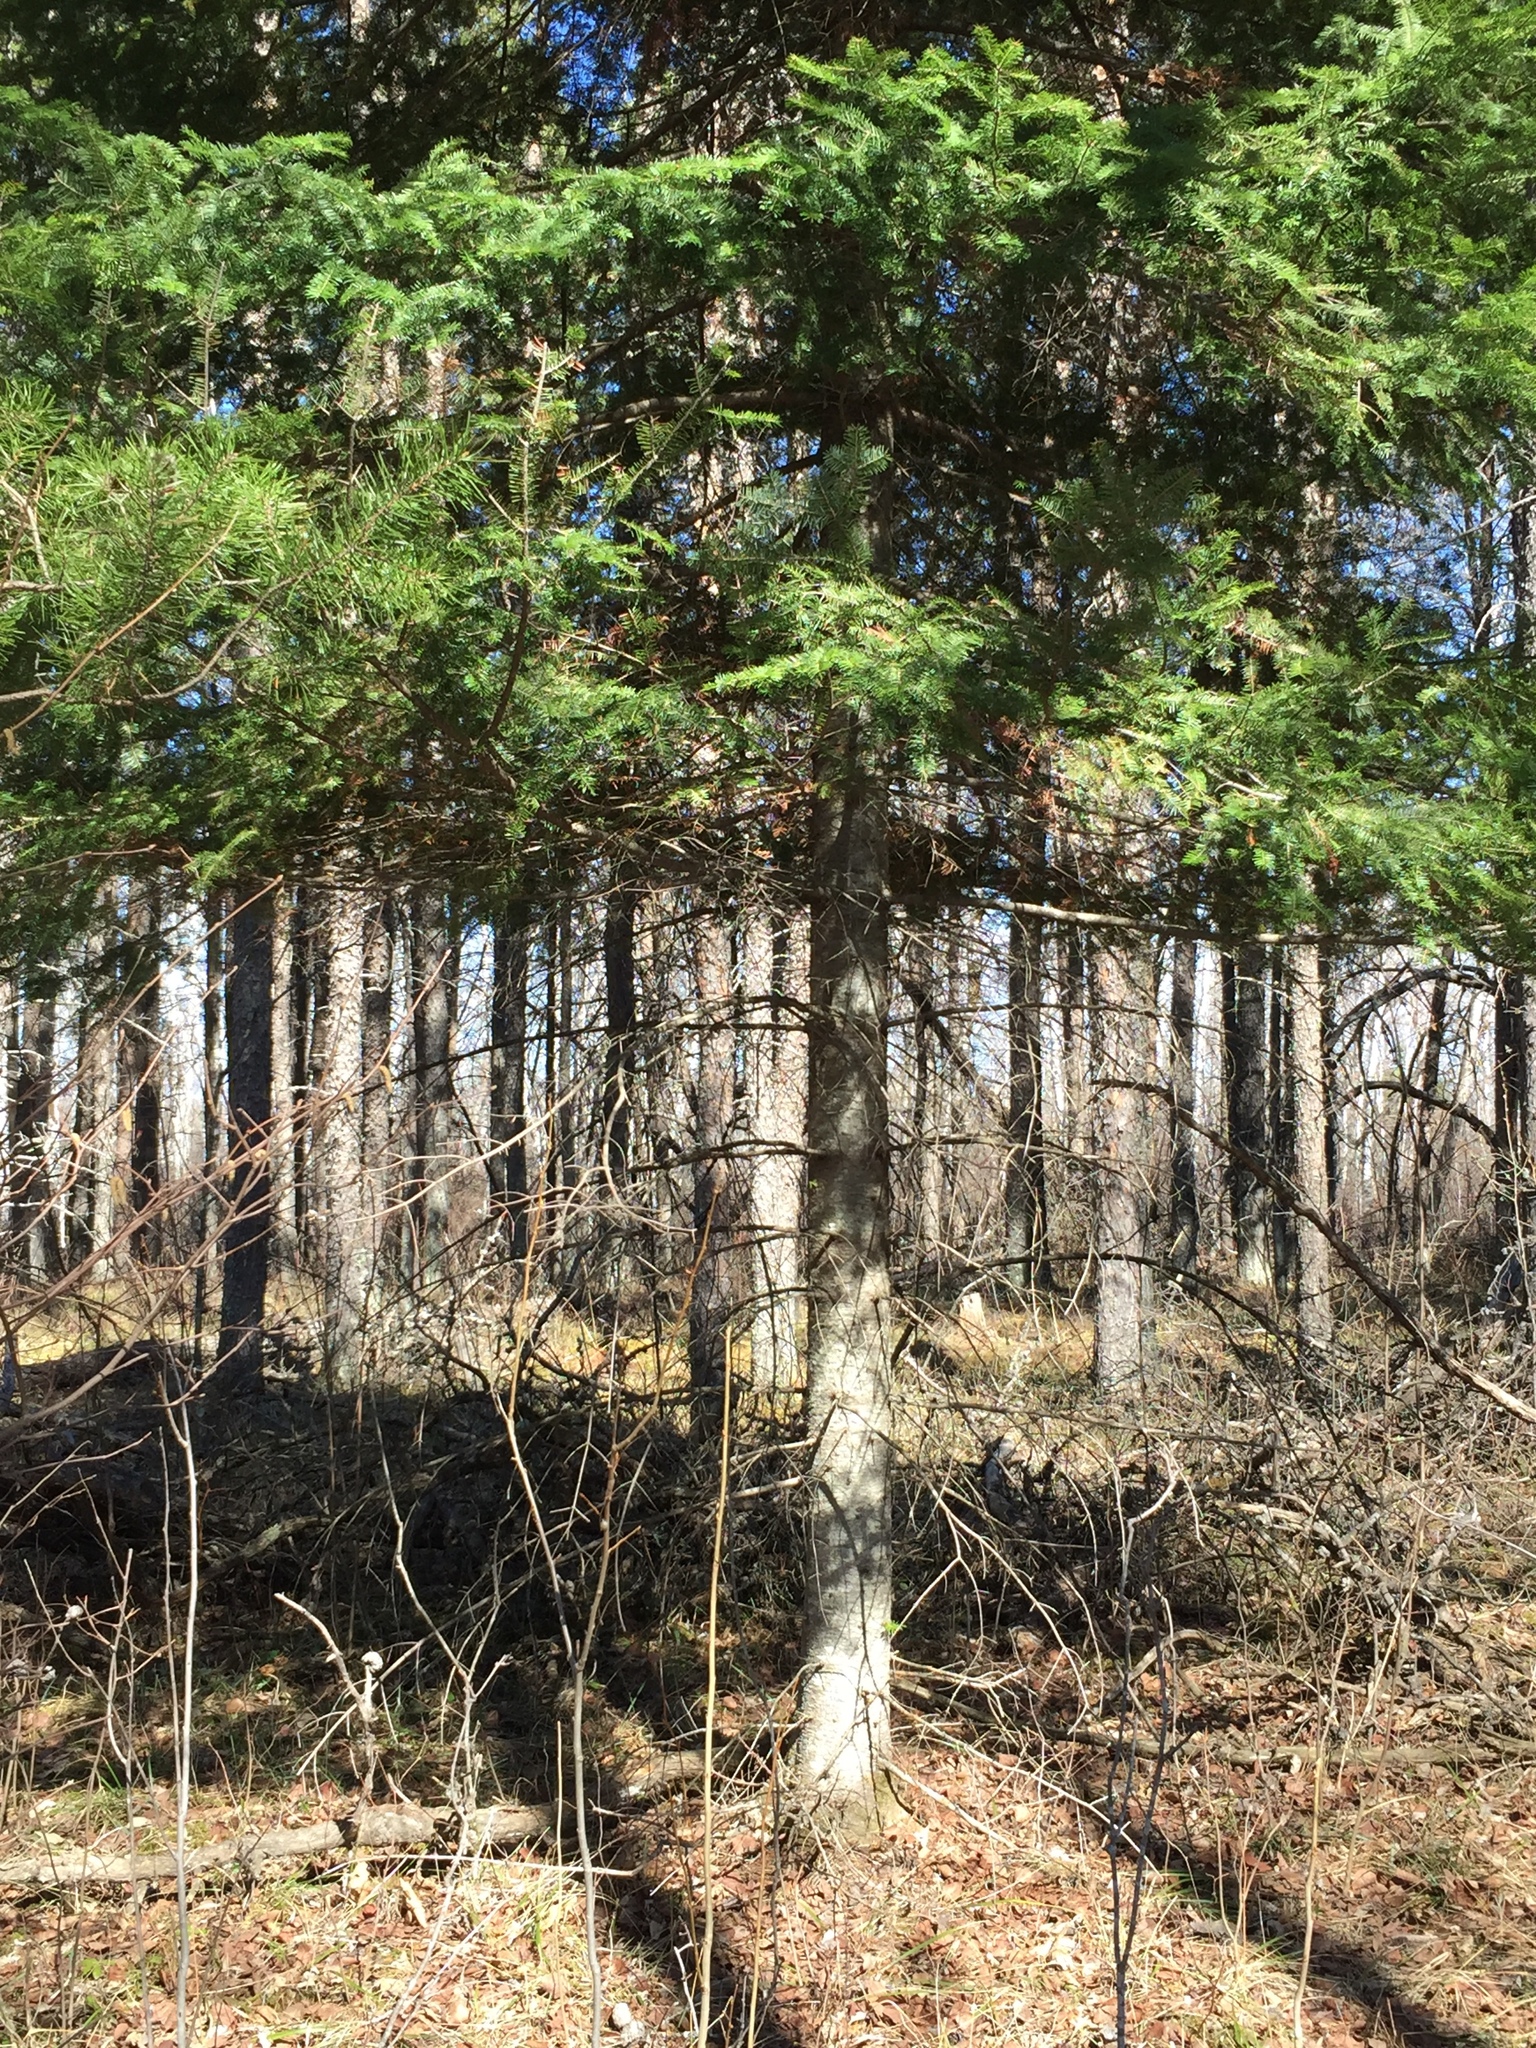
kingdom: Plantae
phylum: Tracheophyta
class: Pinopsida
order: Pinales
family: Pinaceae
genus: Abies
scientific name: Abies balsamea
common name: Balsam fir
